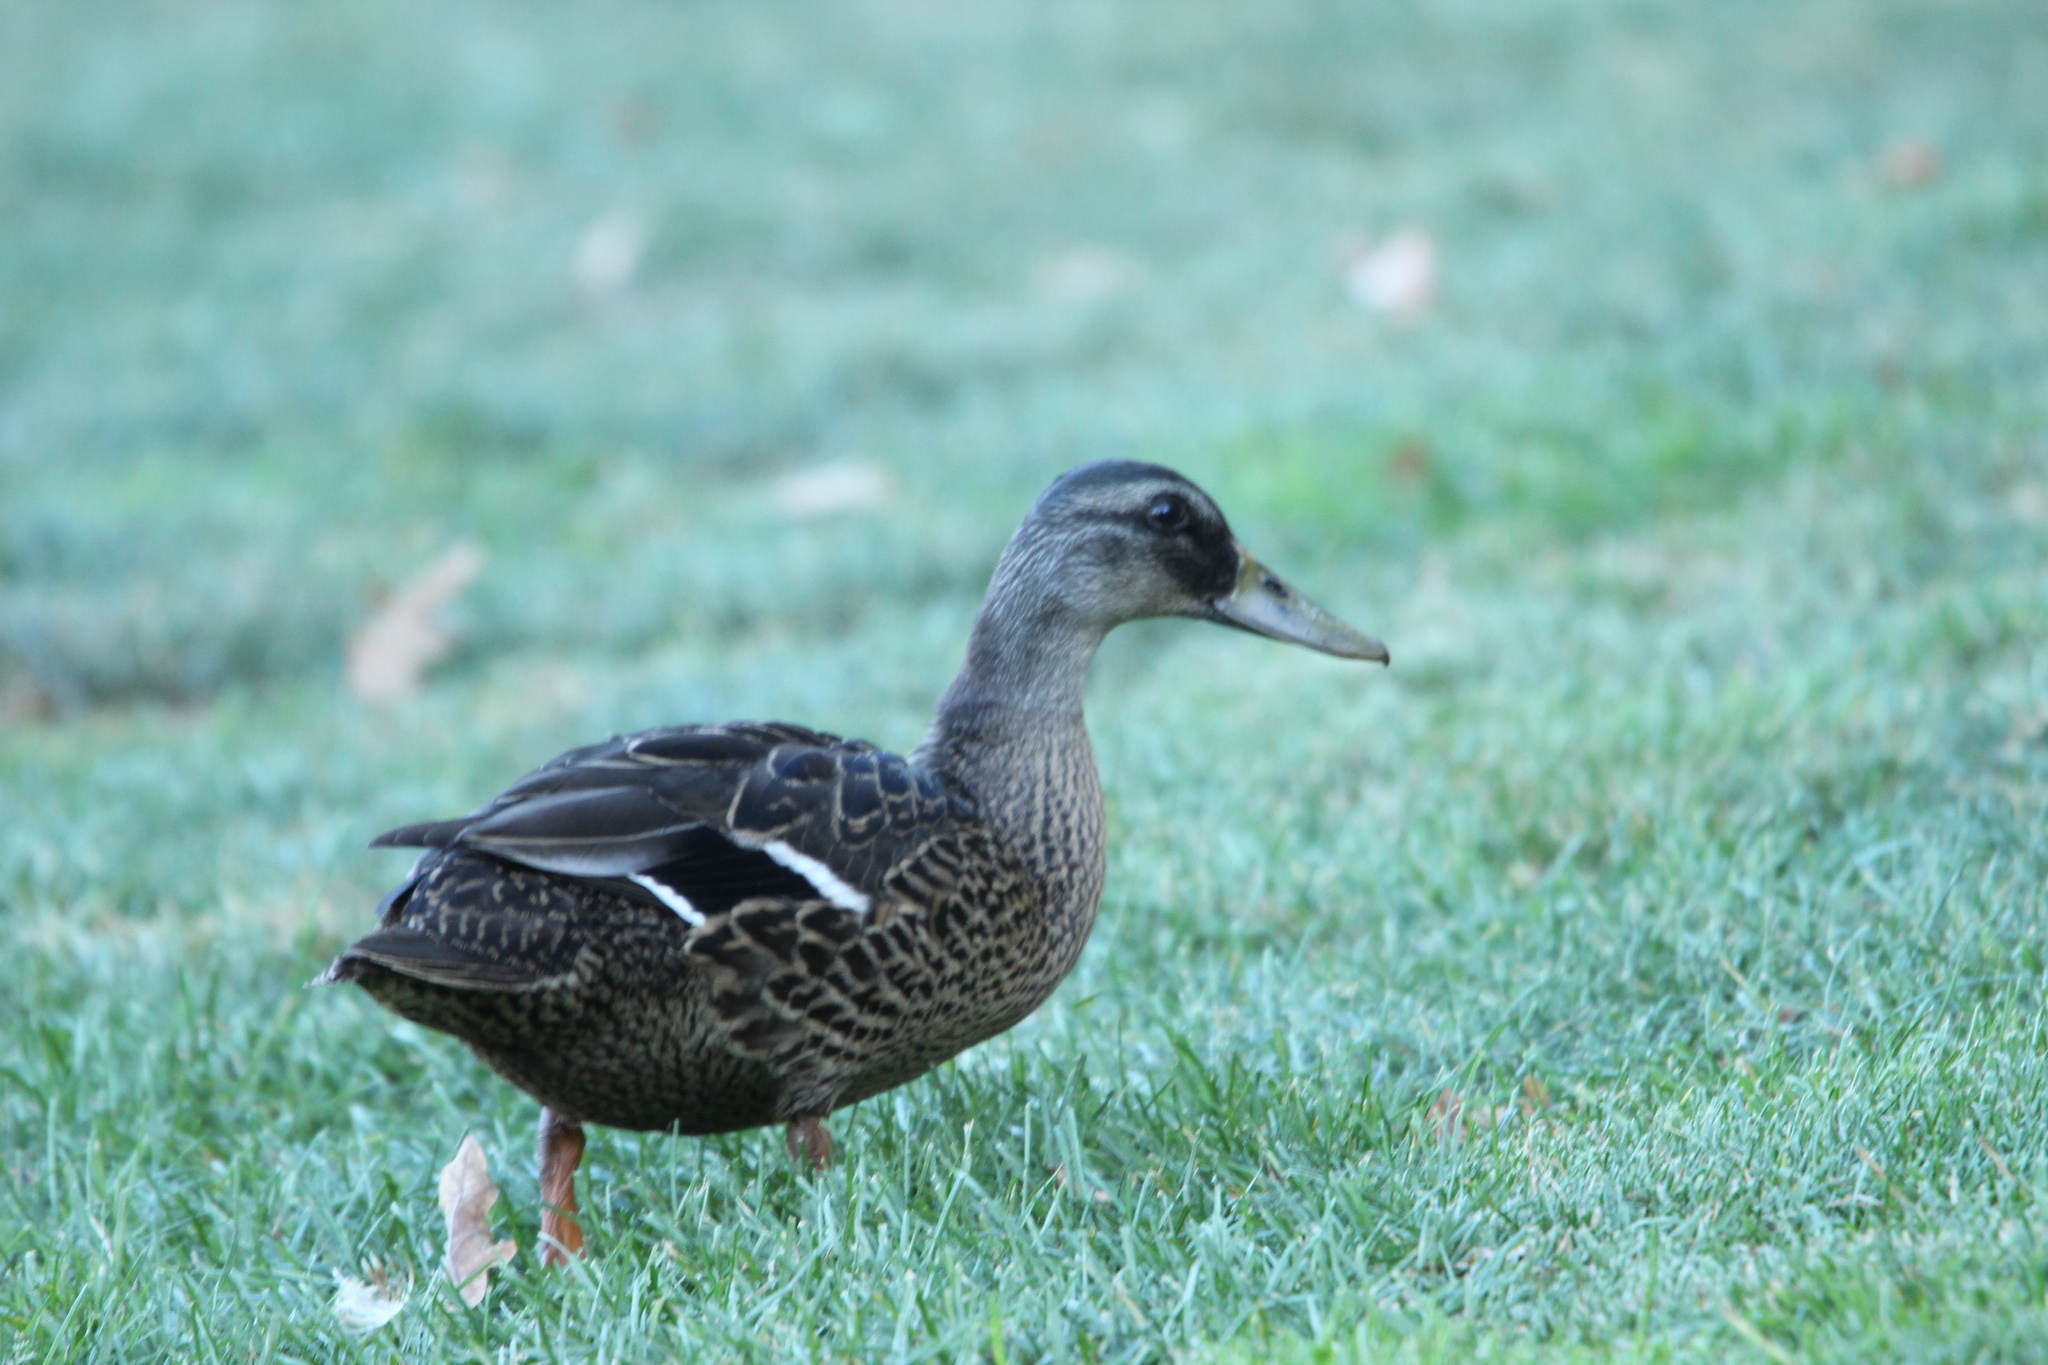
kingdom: Animalia
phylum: Chordata
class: Aves
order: Anseriformes
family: Anatidae
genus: Anas
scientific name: Anas
